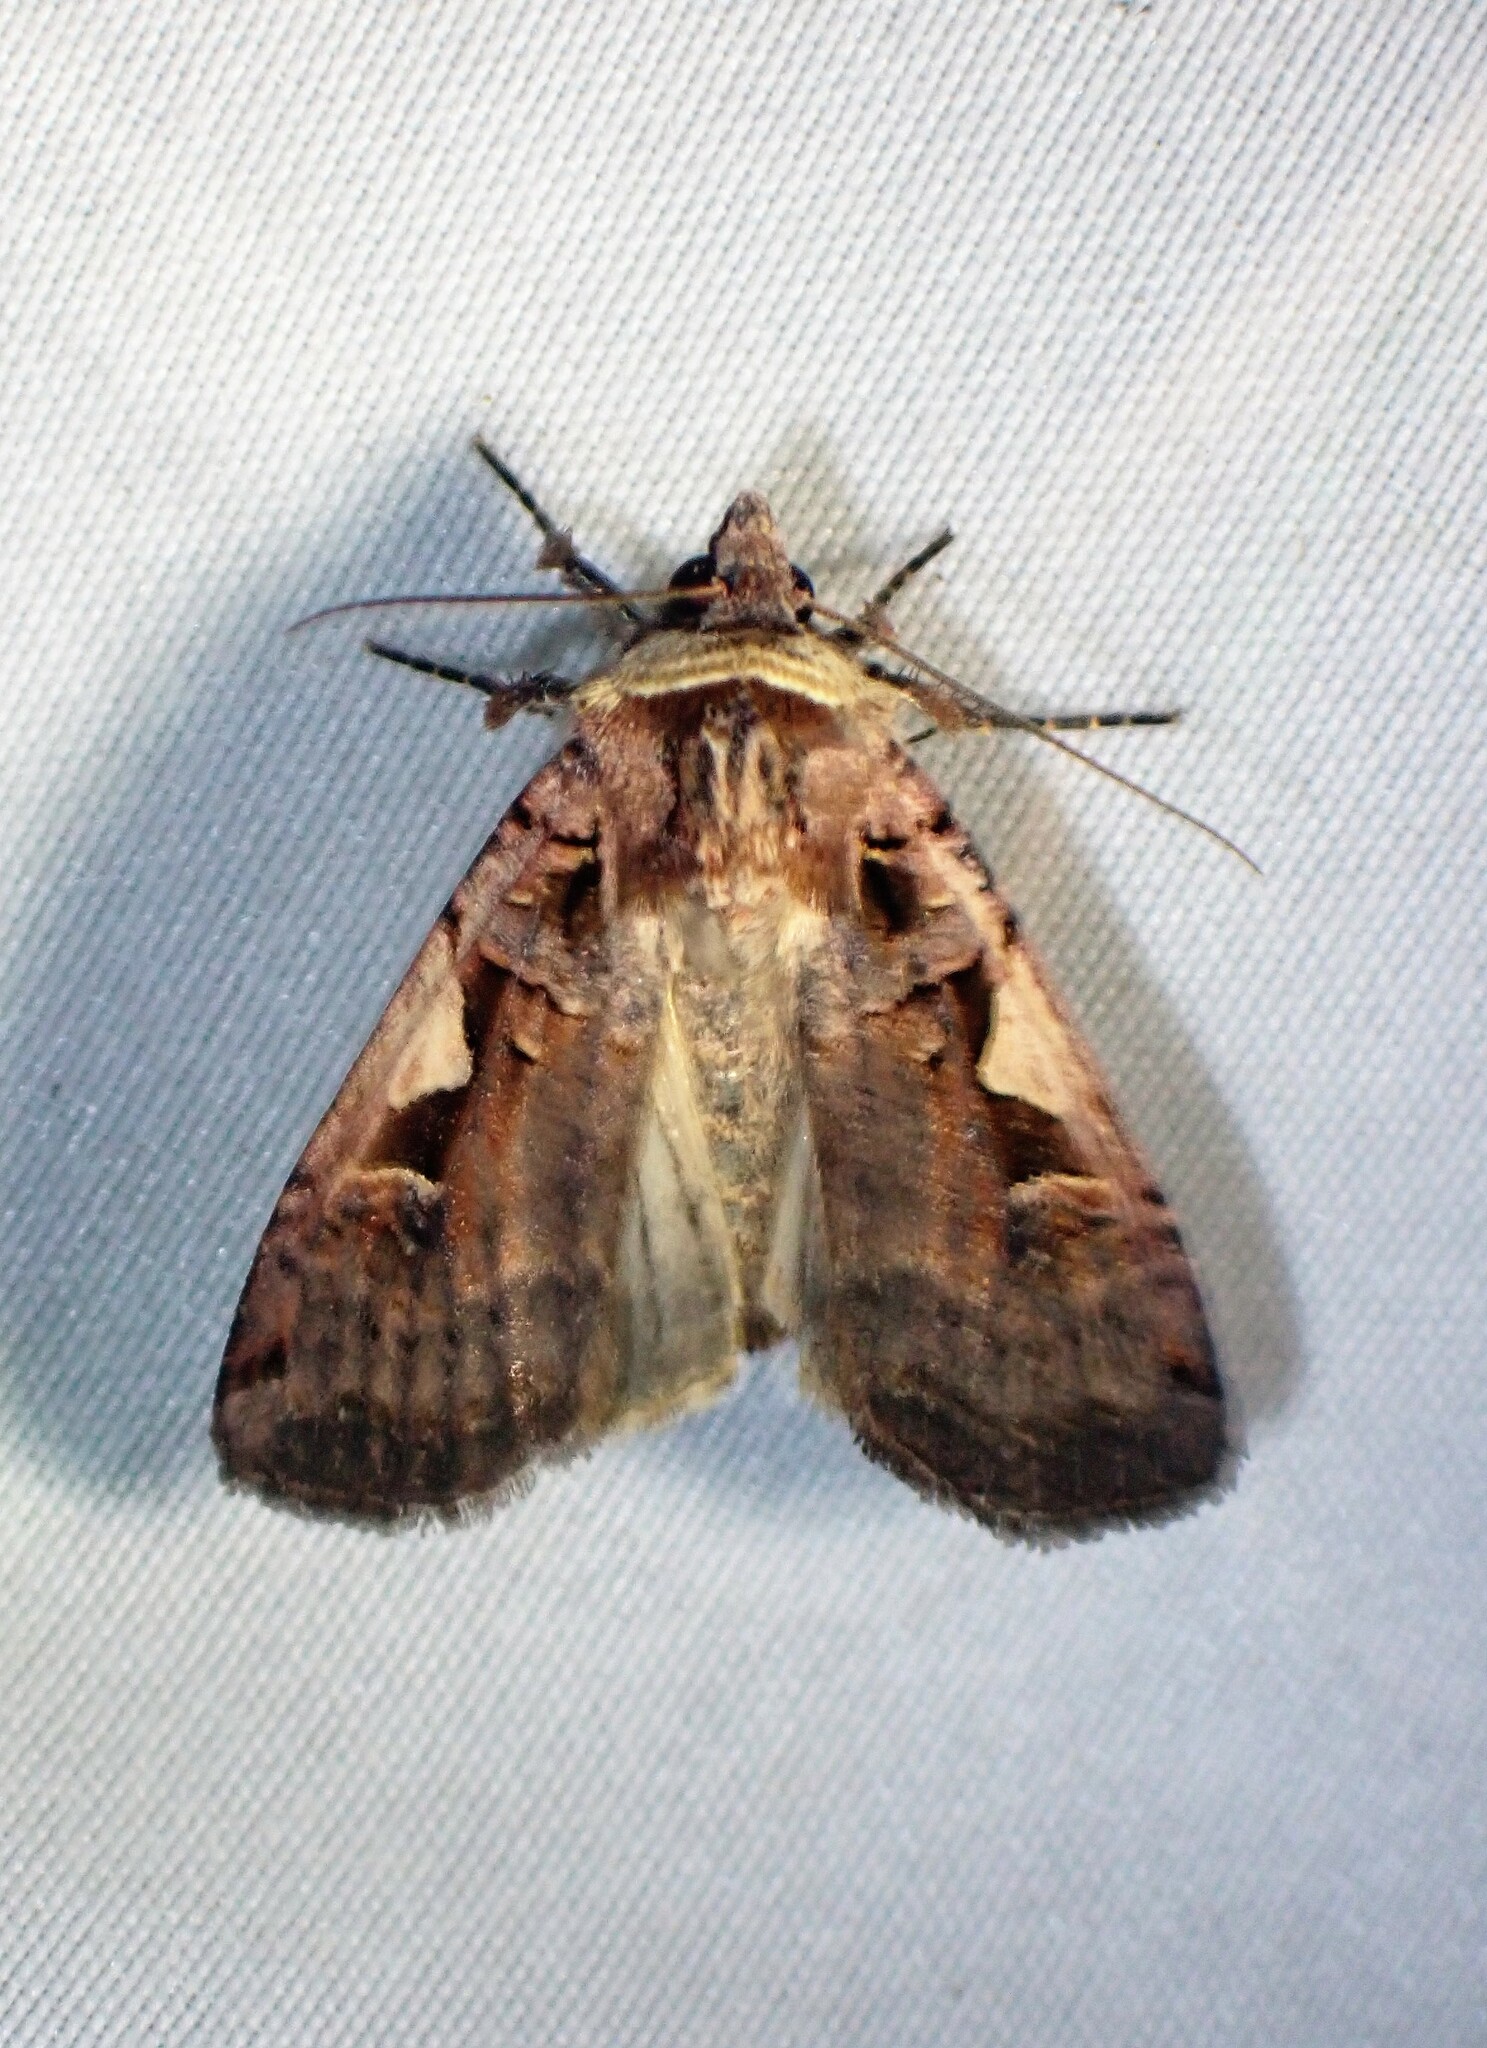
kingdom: Animalia
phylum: Arthropoda
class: Insecta
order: Lepidoptera
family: Noctuidae
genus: Xestia
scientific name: Xestia c-nigrum
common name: Setaceous hebrew character
